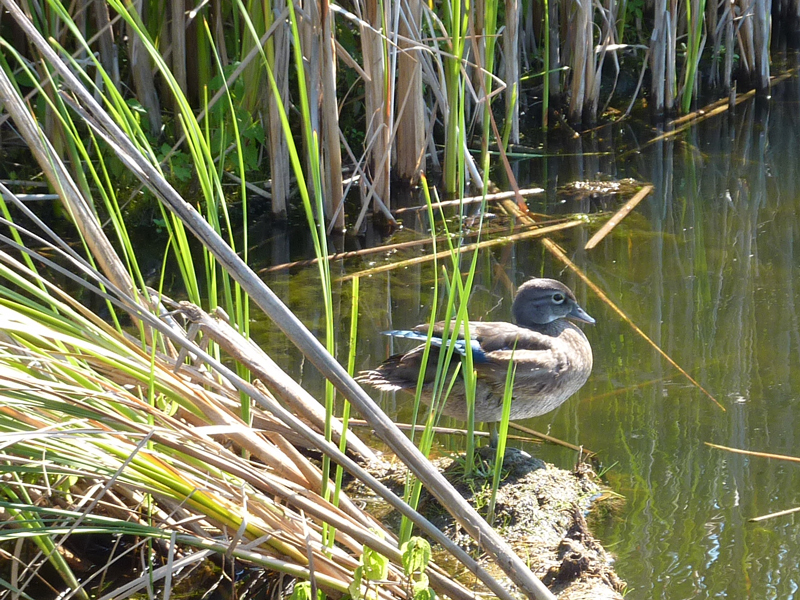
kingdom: Animalia
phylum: Chordata
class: Aves
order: Anseriformes
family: Anatidae
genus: Aix
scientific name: Aix sponsa
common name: Wood duck
